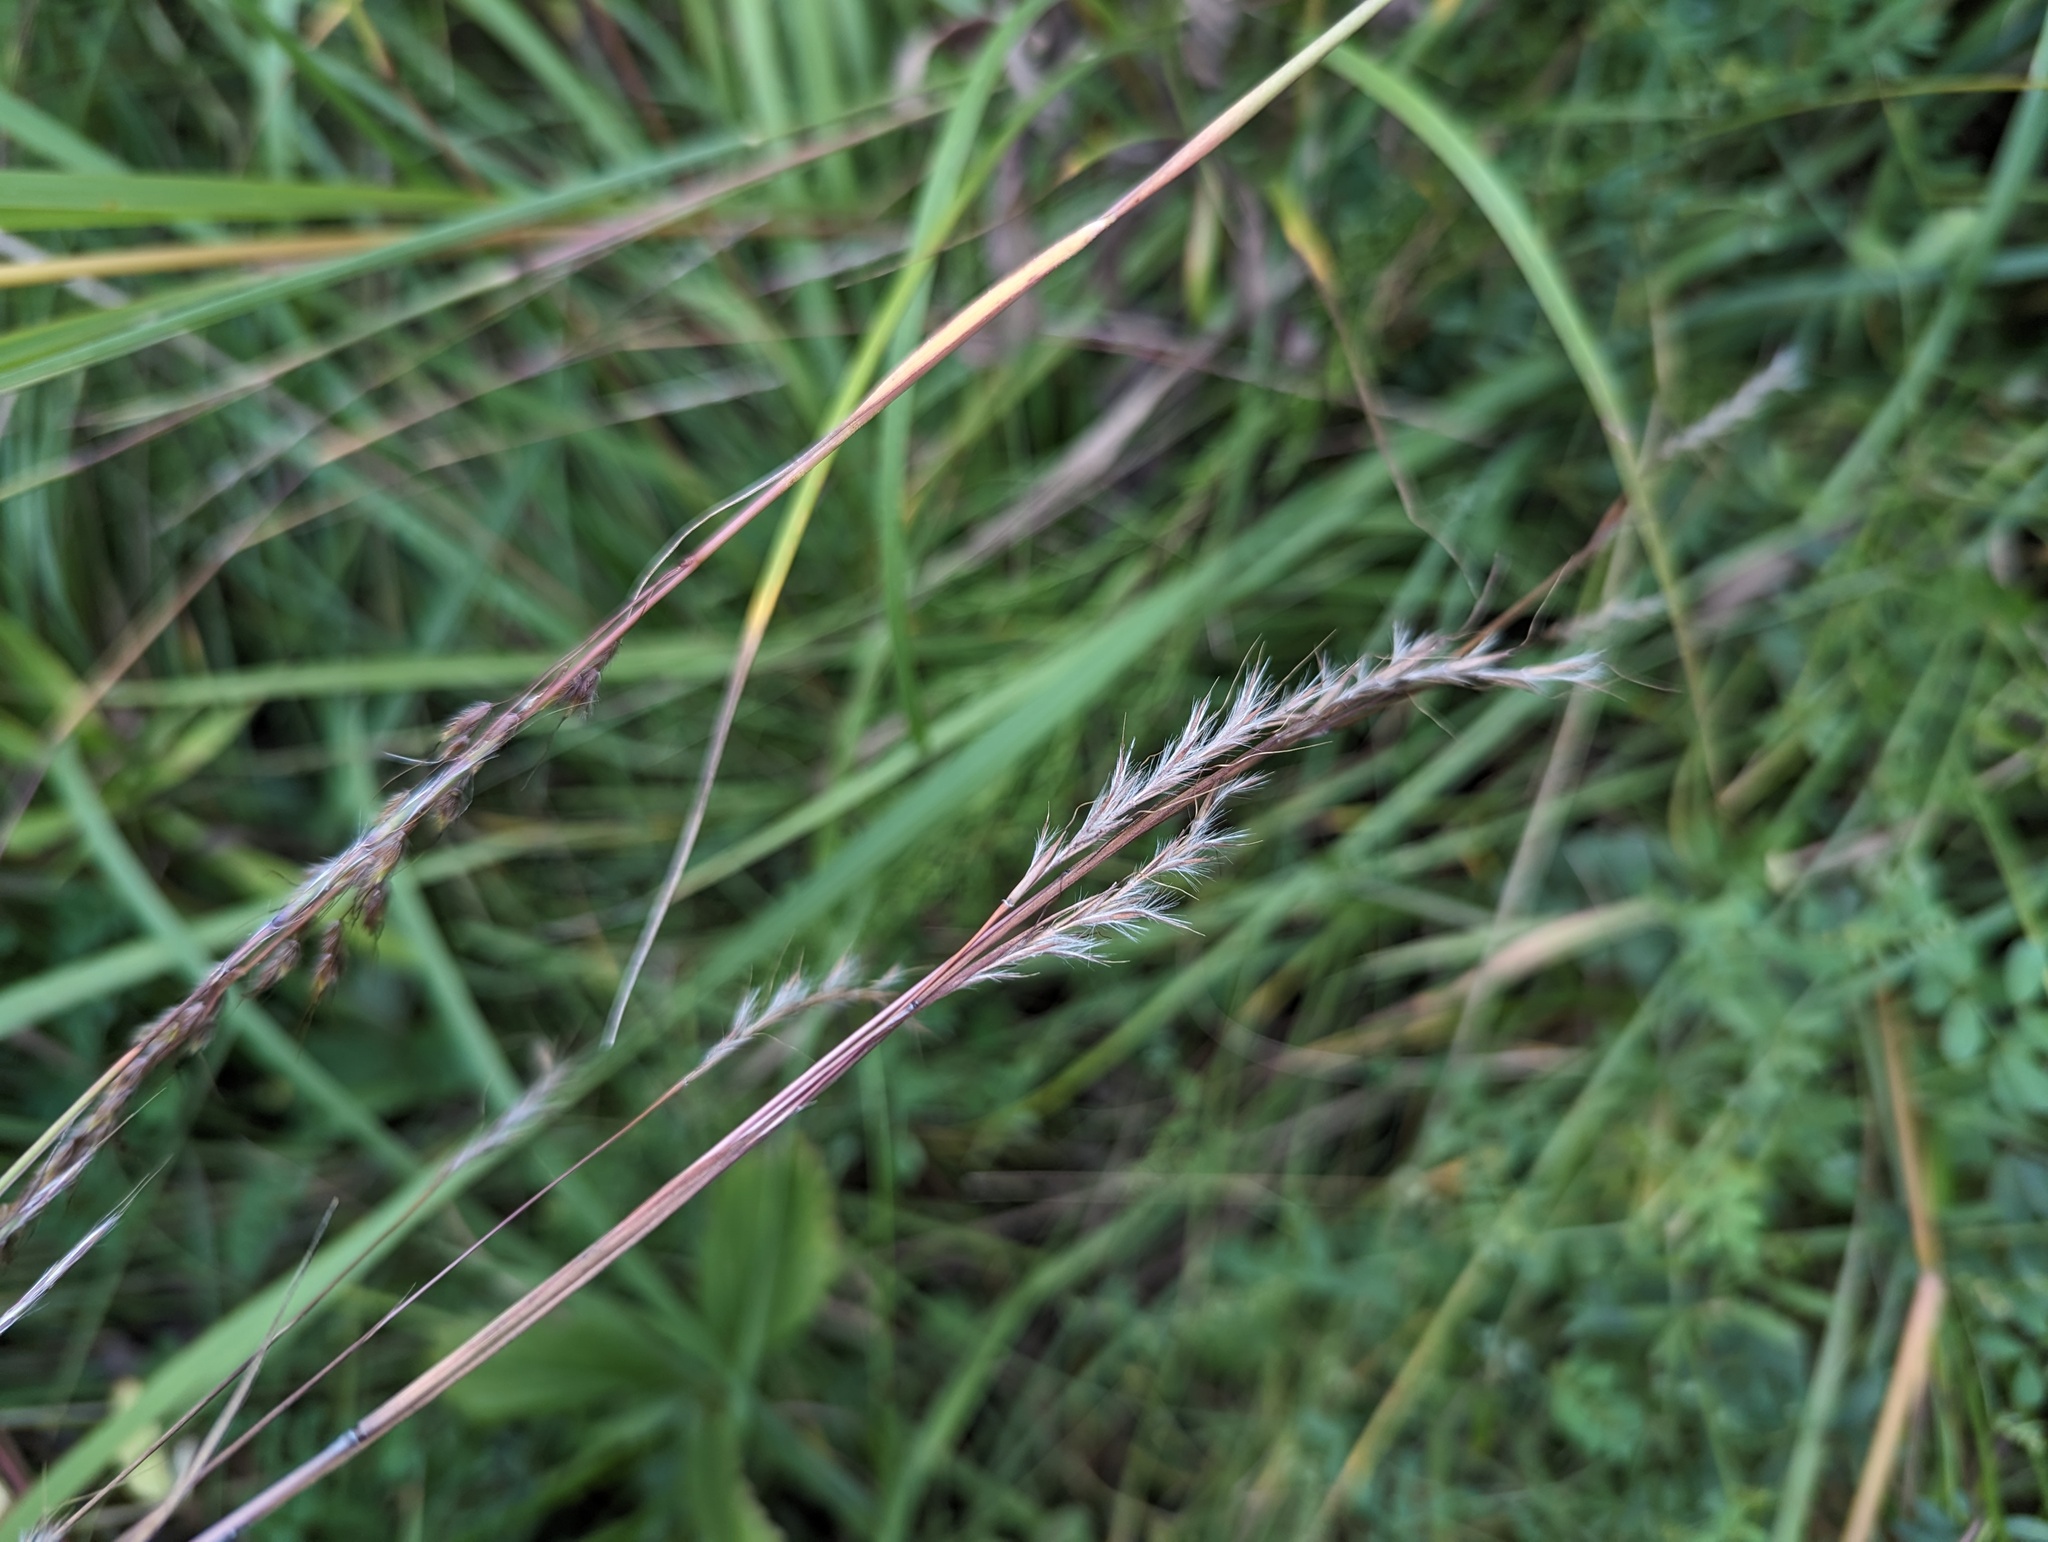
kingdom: Plantae
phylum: Tracheophyta
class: Liliopsida
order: Poales
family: Poaceae
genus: Schizachyrium
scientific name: Schizachyrium scoparium
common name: Little bluestem
